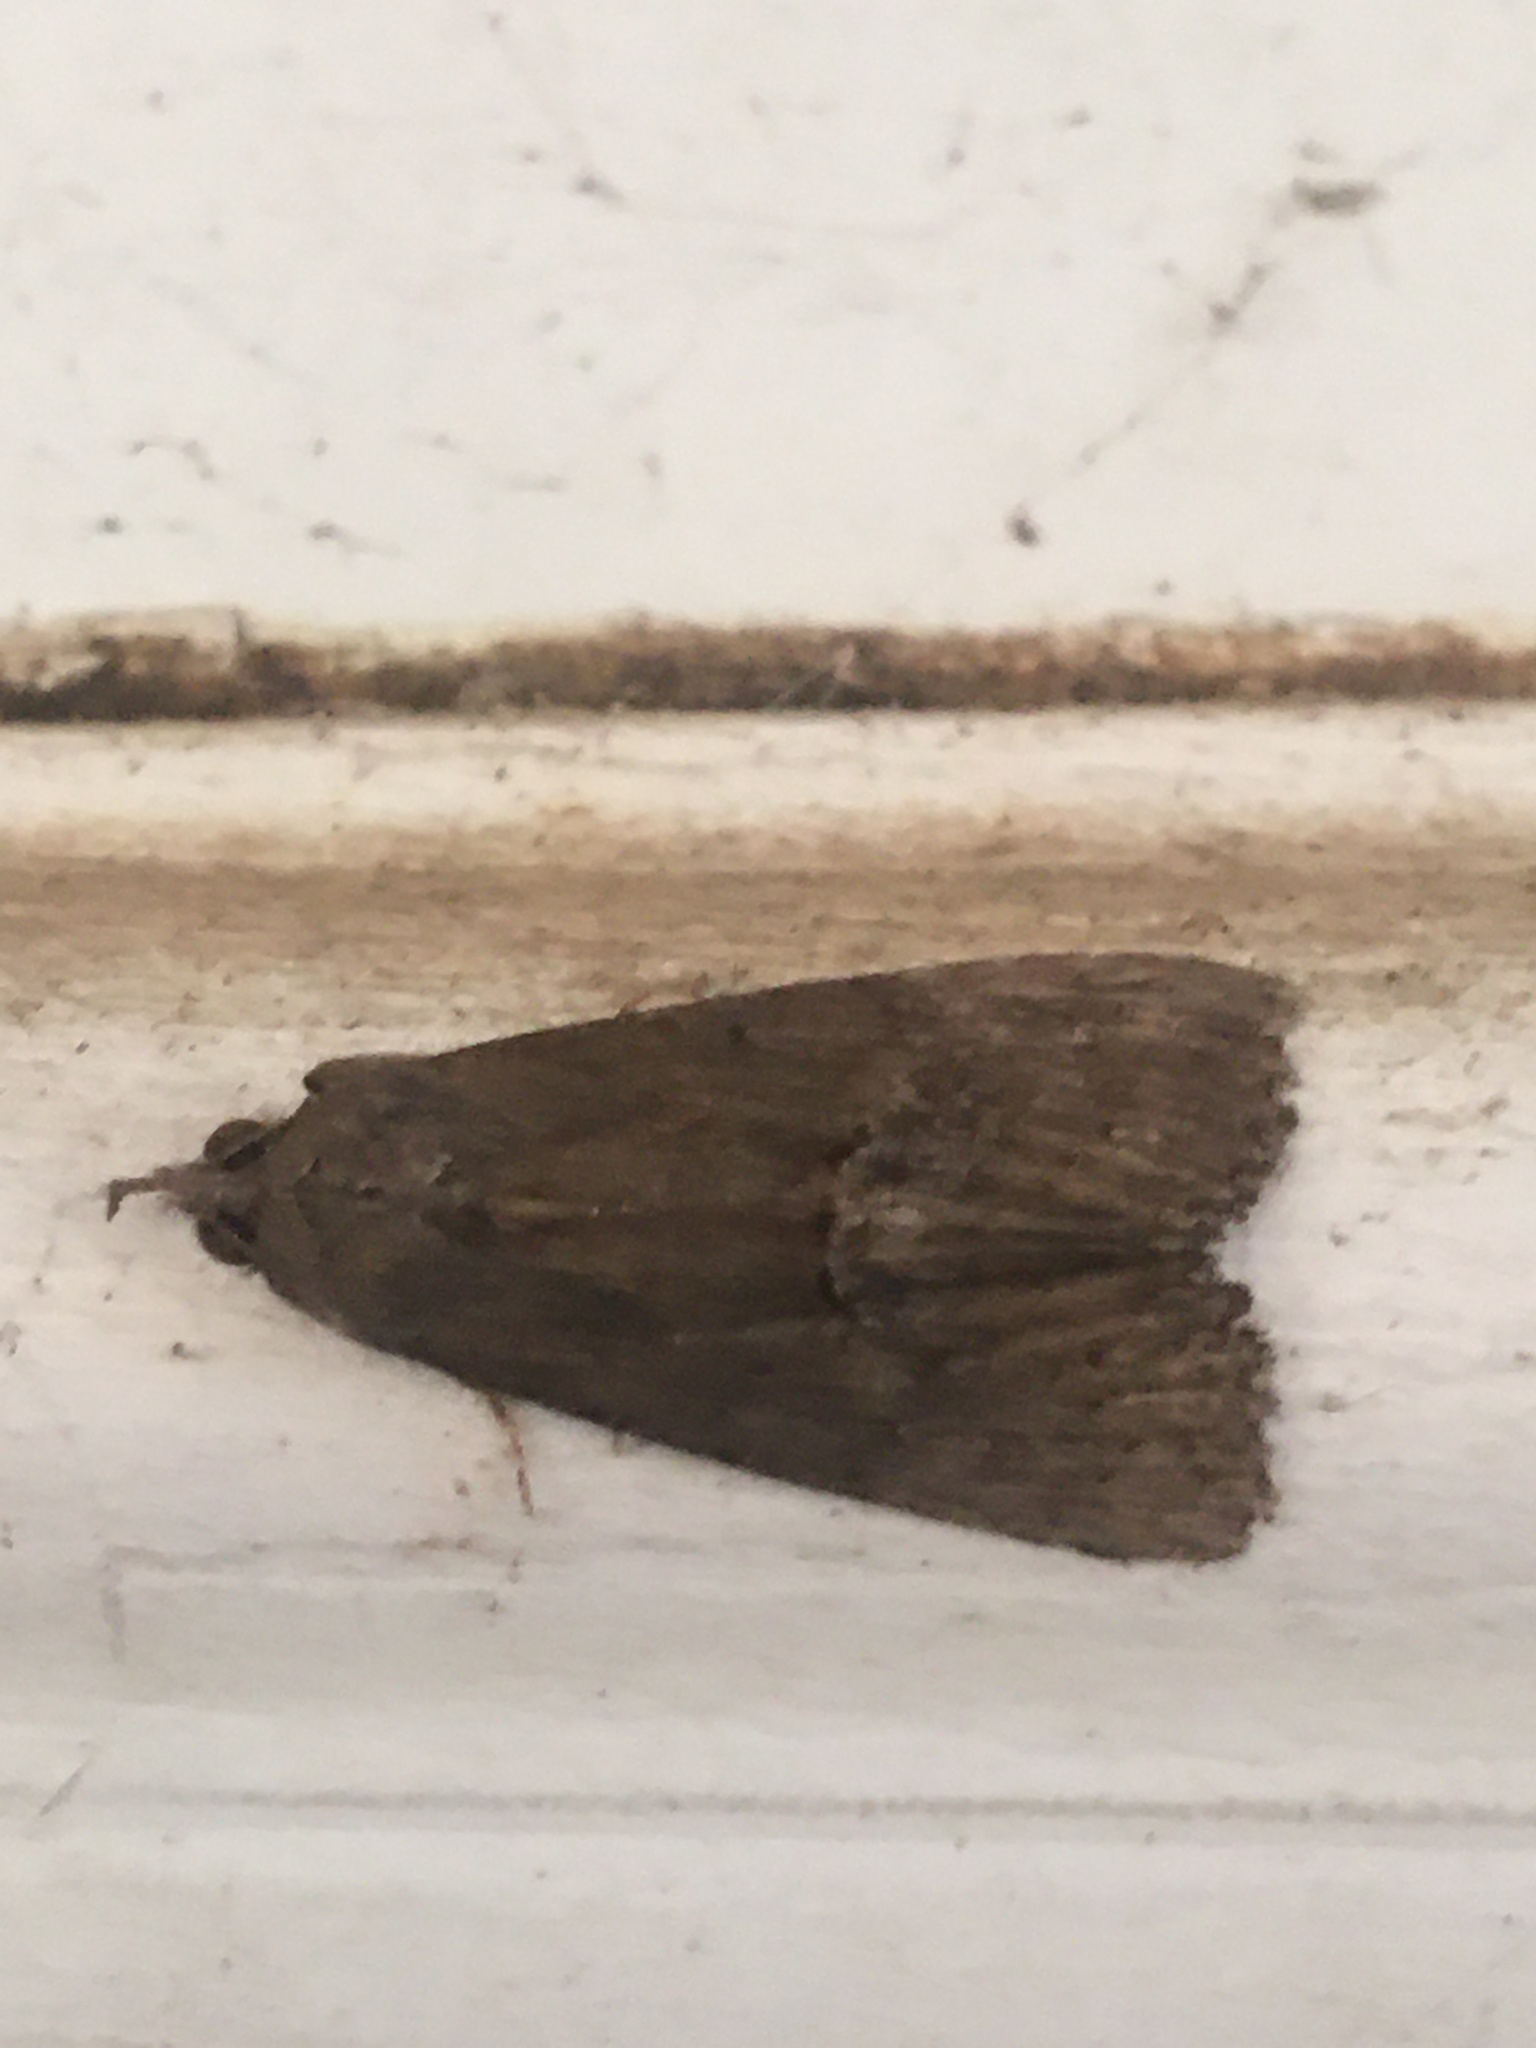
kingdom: Animalia
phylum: Arthropoda
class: Insecta
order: Lepidoptera
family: Erebidae
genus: Hypena
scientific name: Hypena scabra
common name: Green cloverworm
